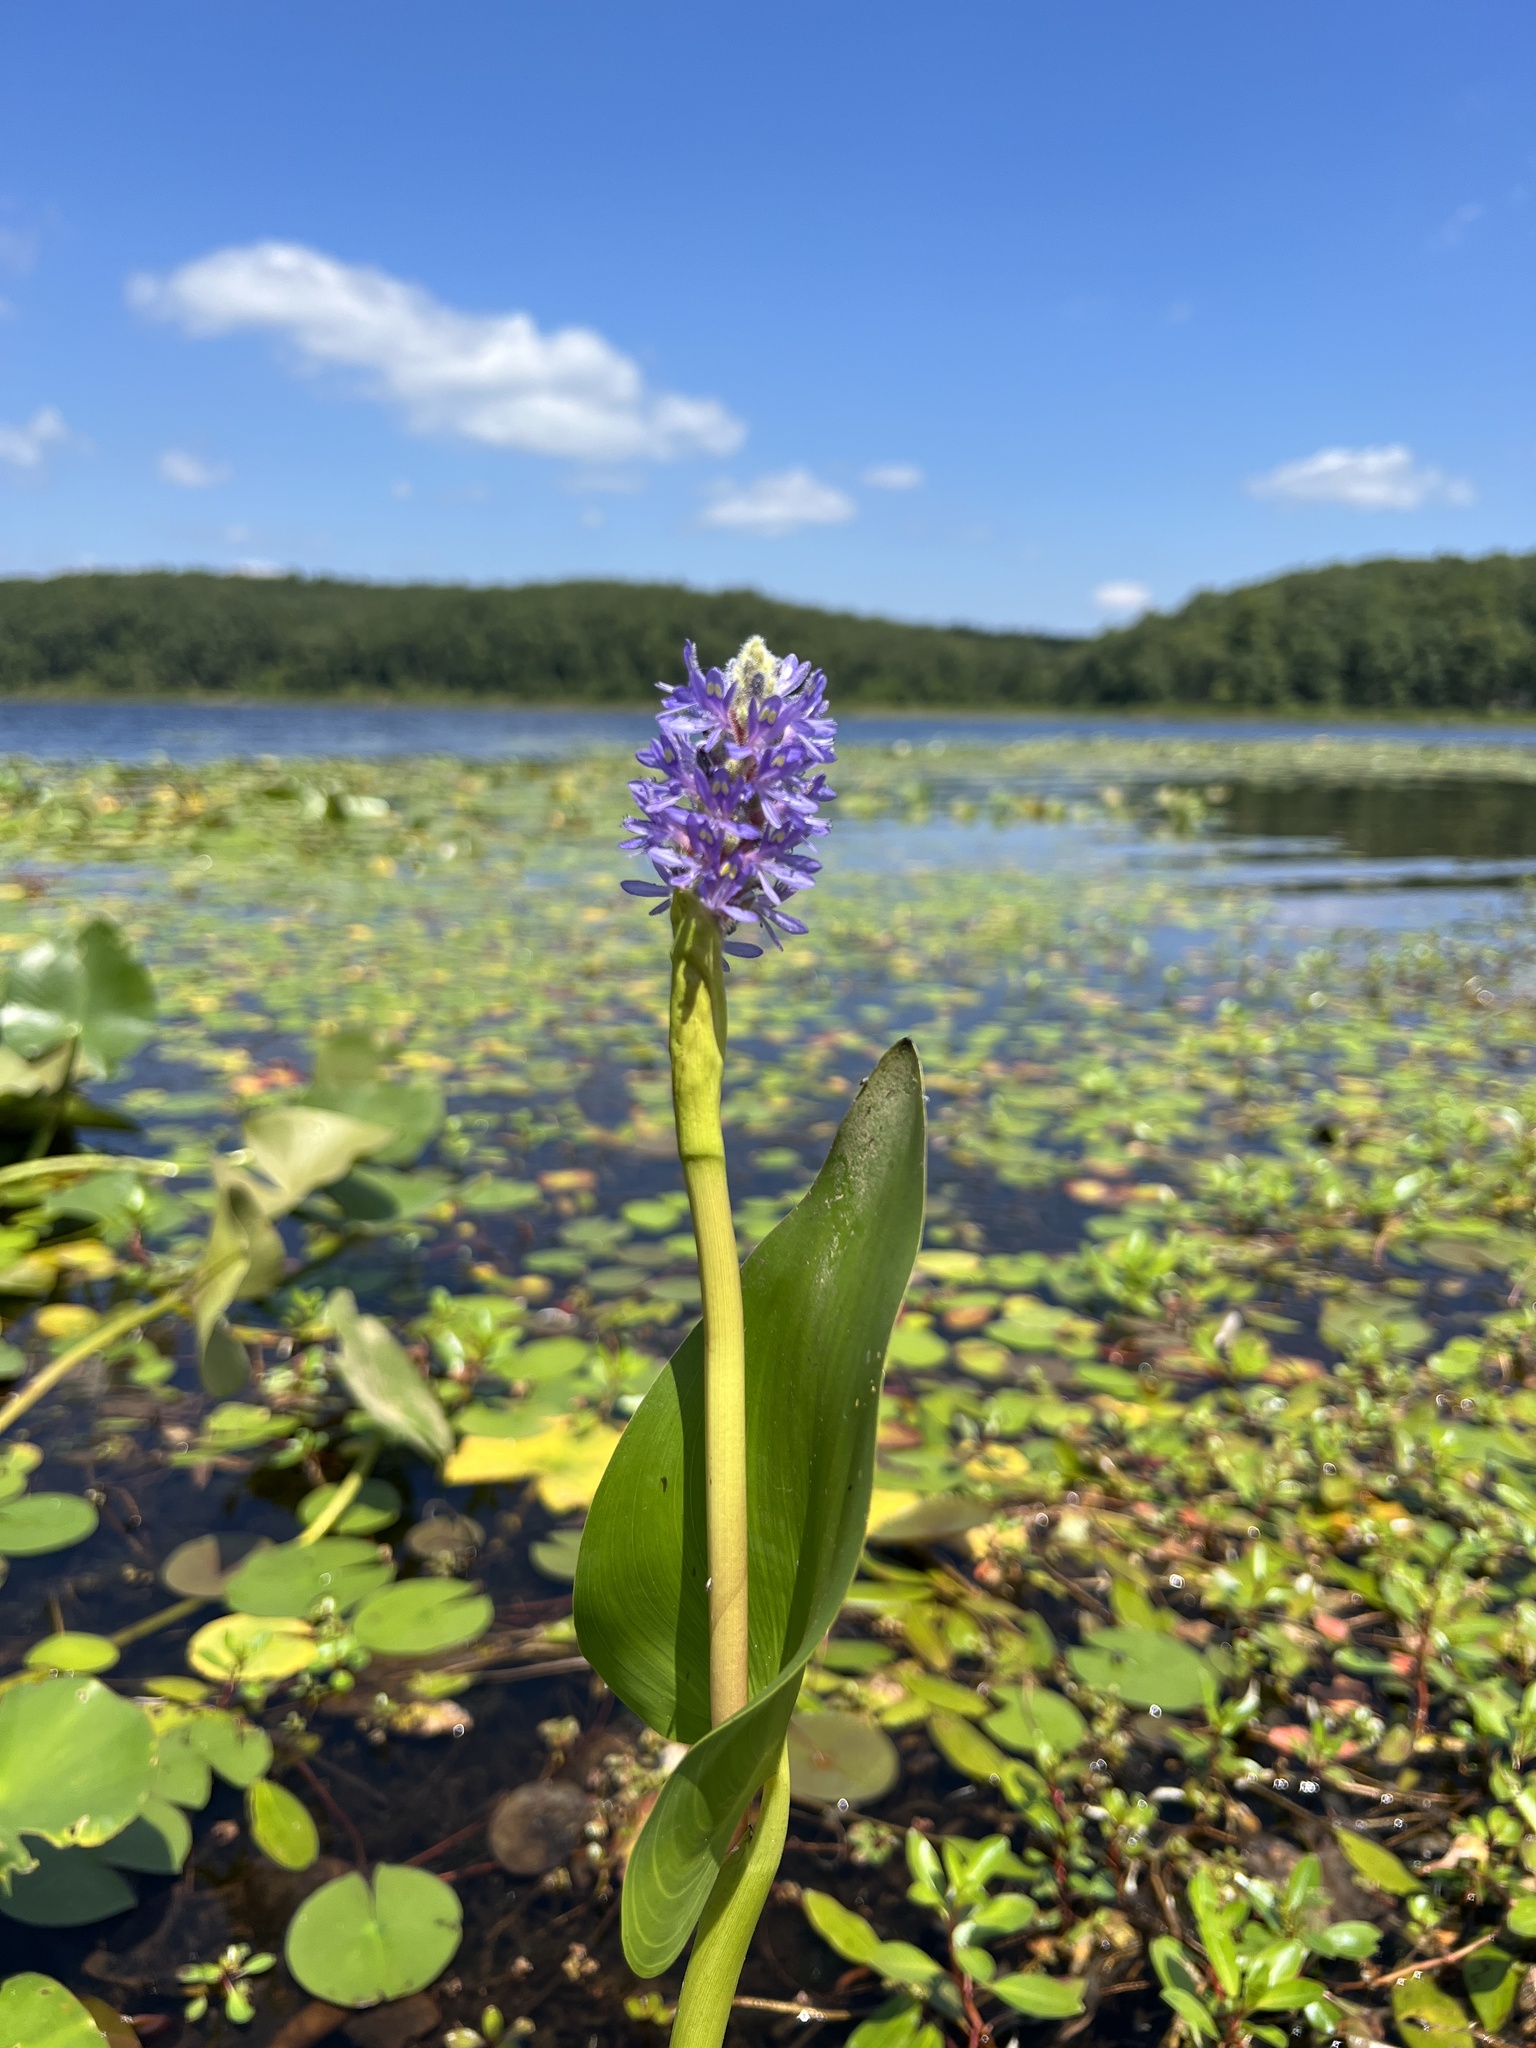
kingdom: Plantae
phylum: Tracheophyta
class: Liliopsida
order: Commelinales
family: Pontederiaceae
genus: Pontederia
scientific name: Pontederia cordata
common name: Pickerelweed
